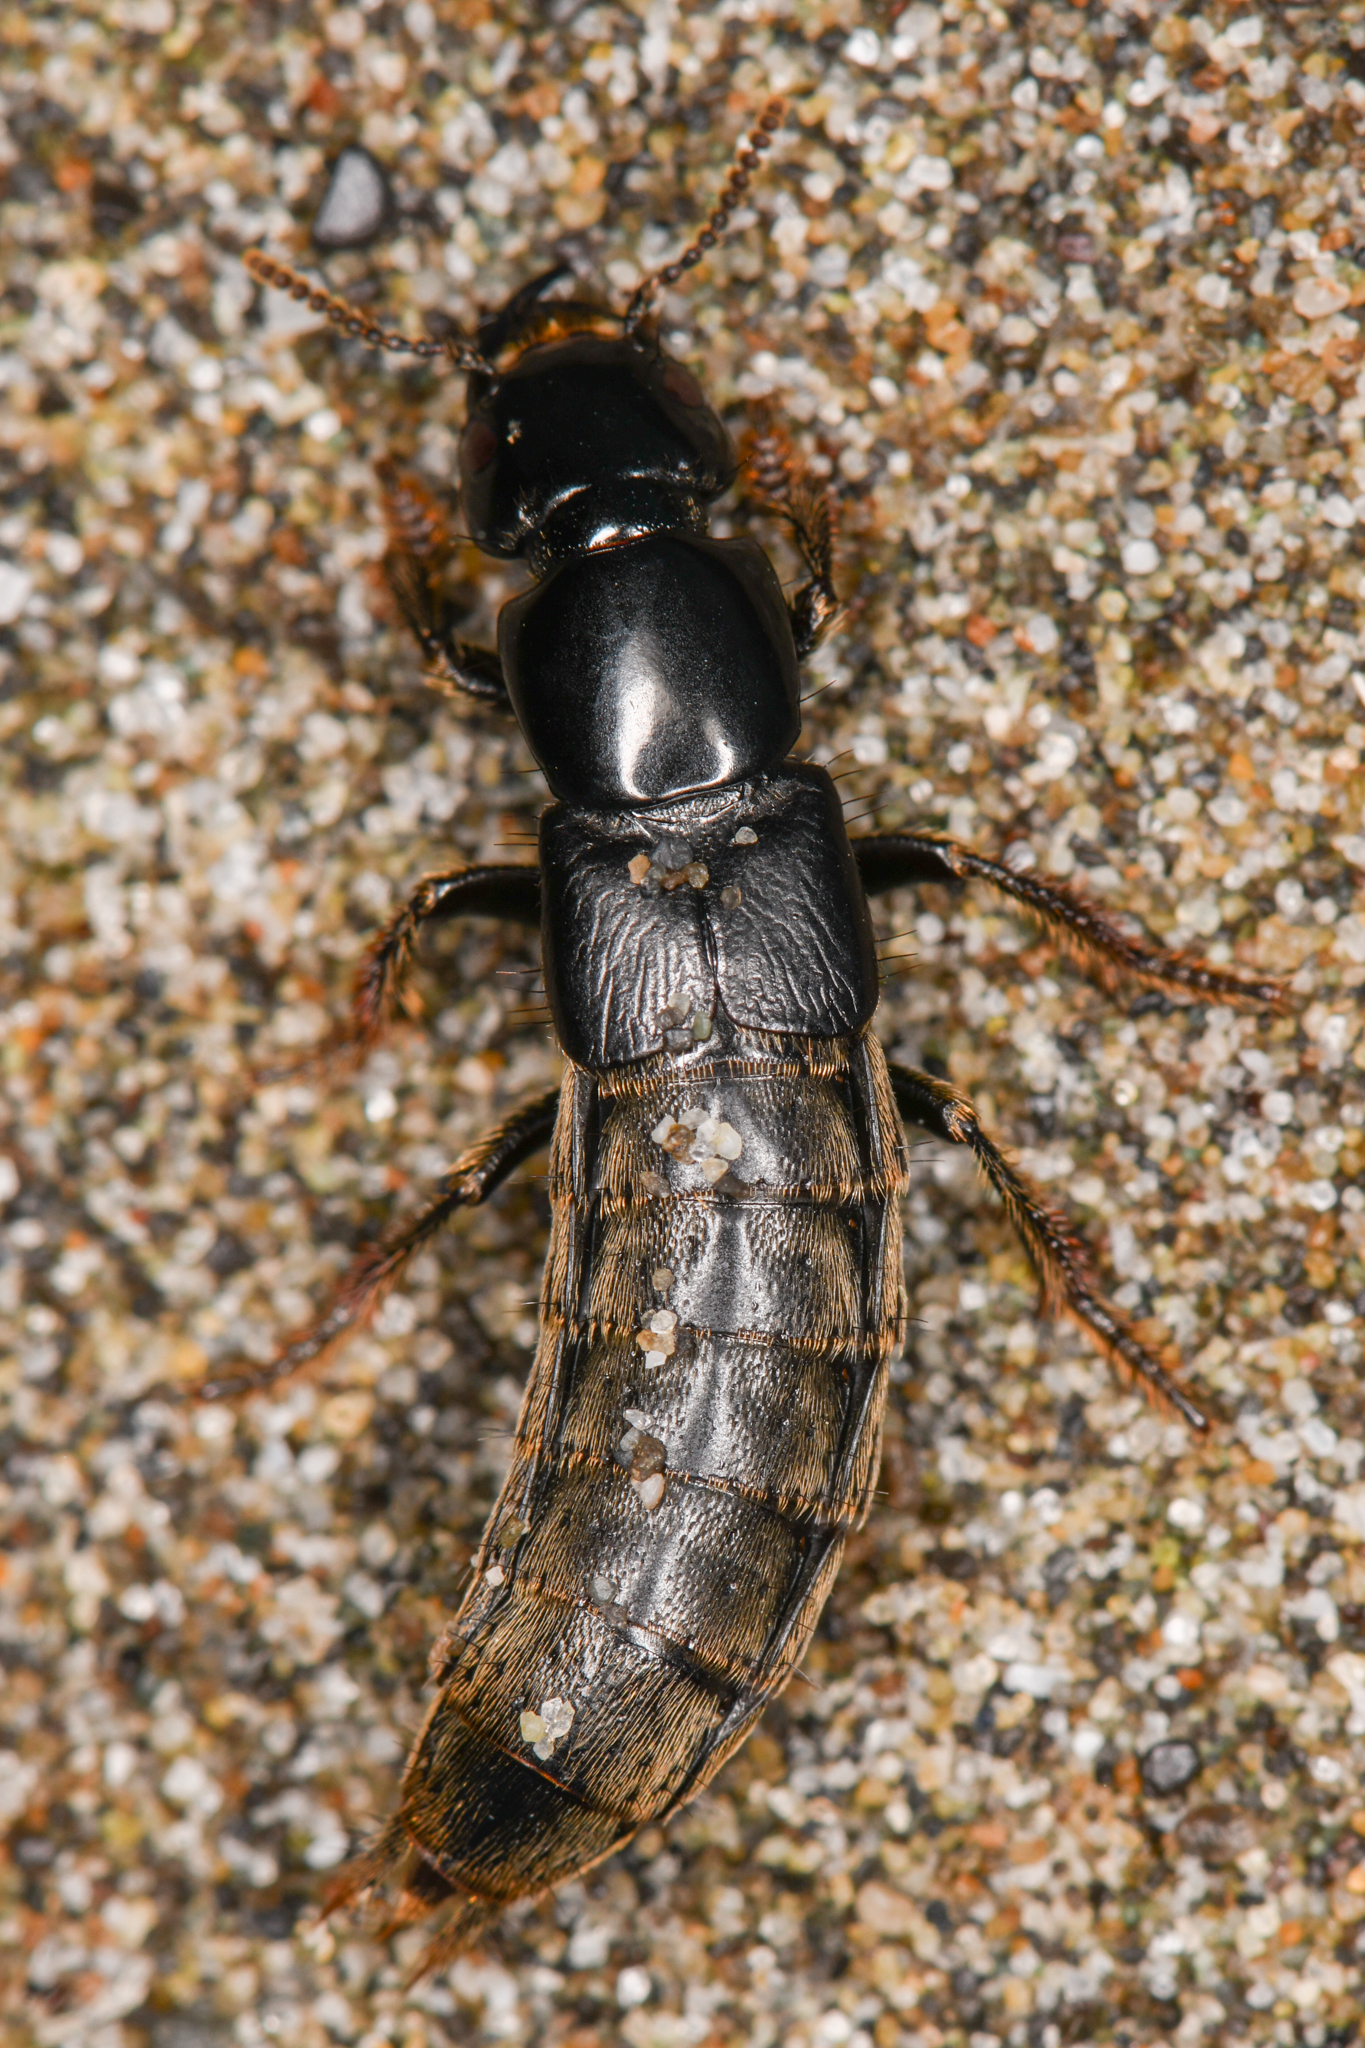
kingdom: Animalia
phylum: Arthropoda
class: Insecta
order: Coleoptera
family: Staphylinidae
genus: Hadrotes
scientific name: Hadrotes crassus
